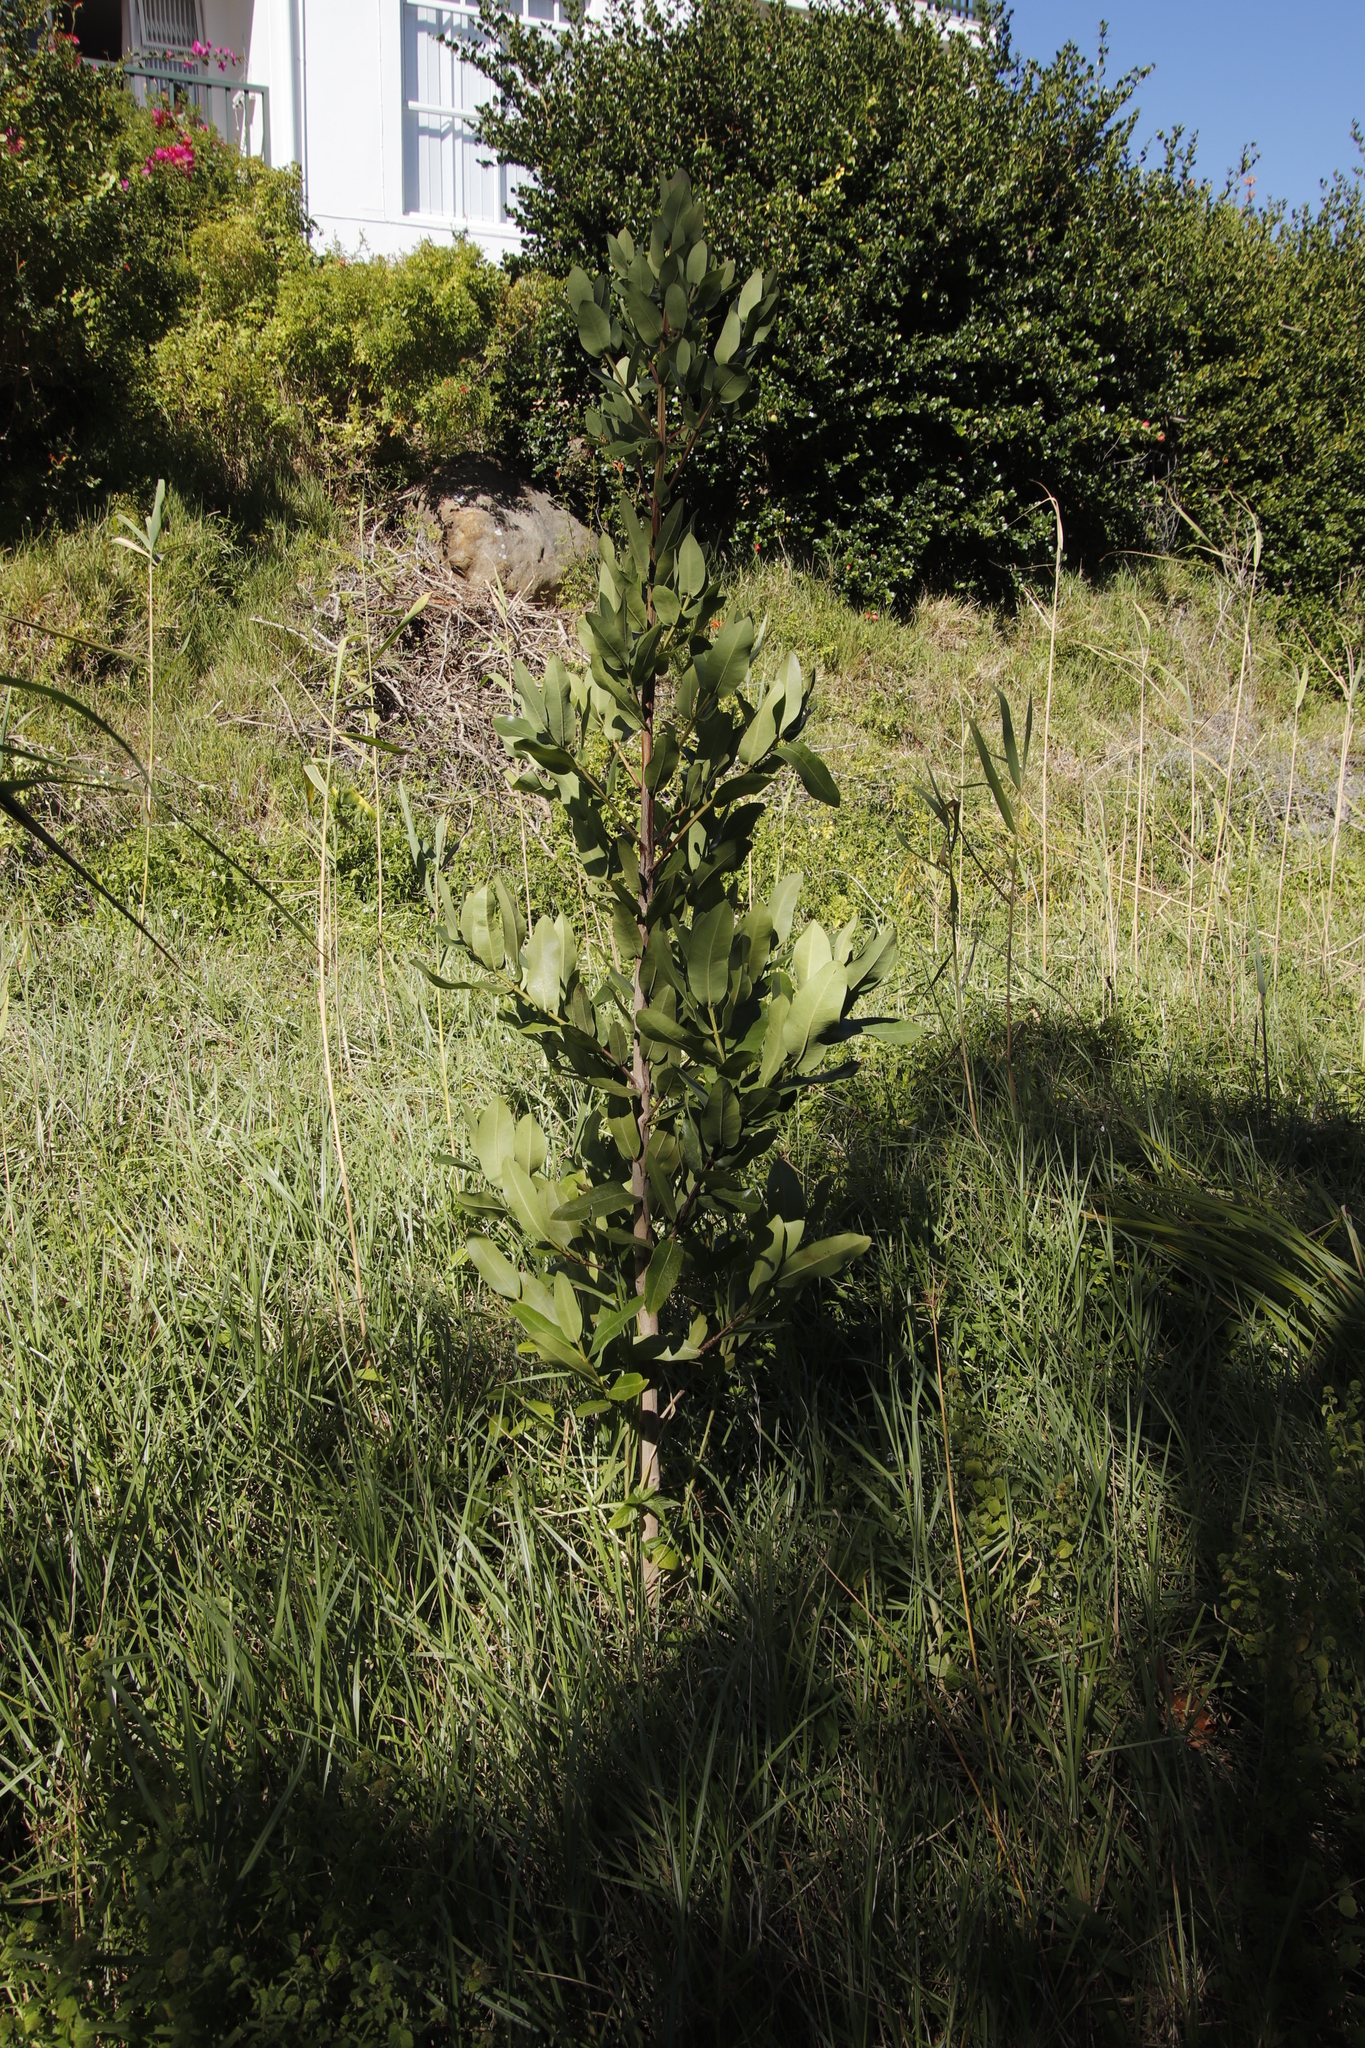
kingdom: Plantae
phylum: Tracheophyta
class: Magnoliopsida
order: Myrtales
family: Myrtaceae
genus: Syzygium
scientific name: Syzygium cordatum
